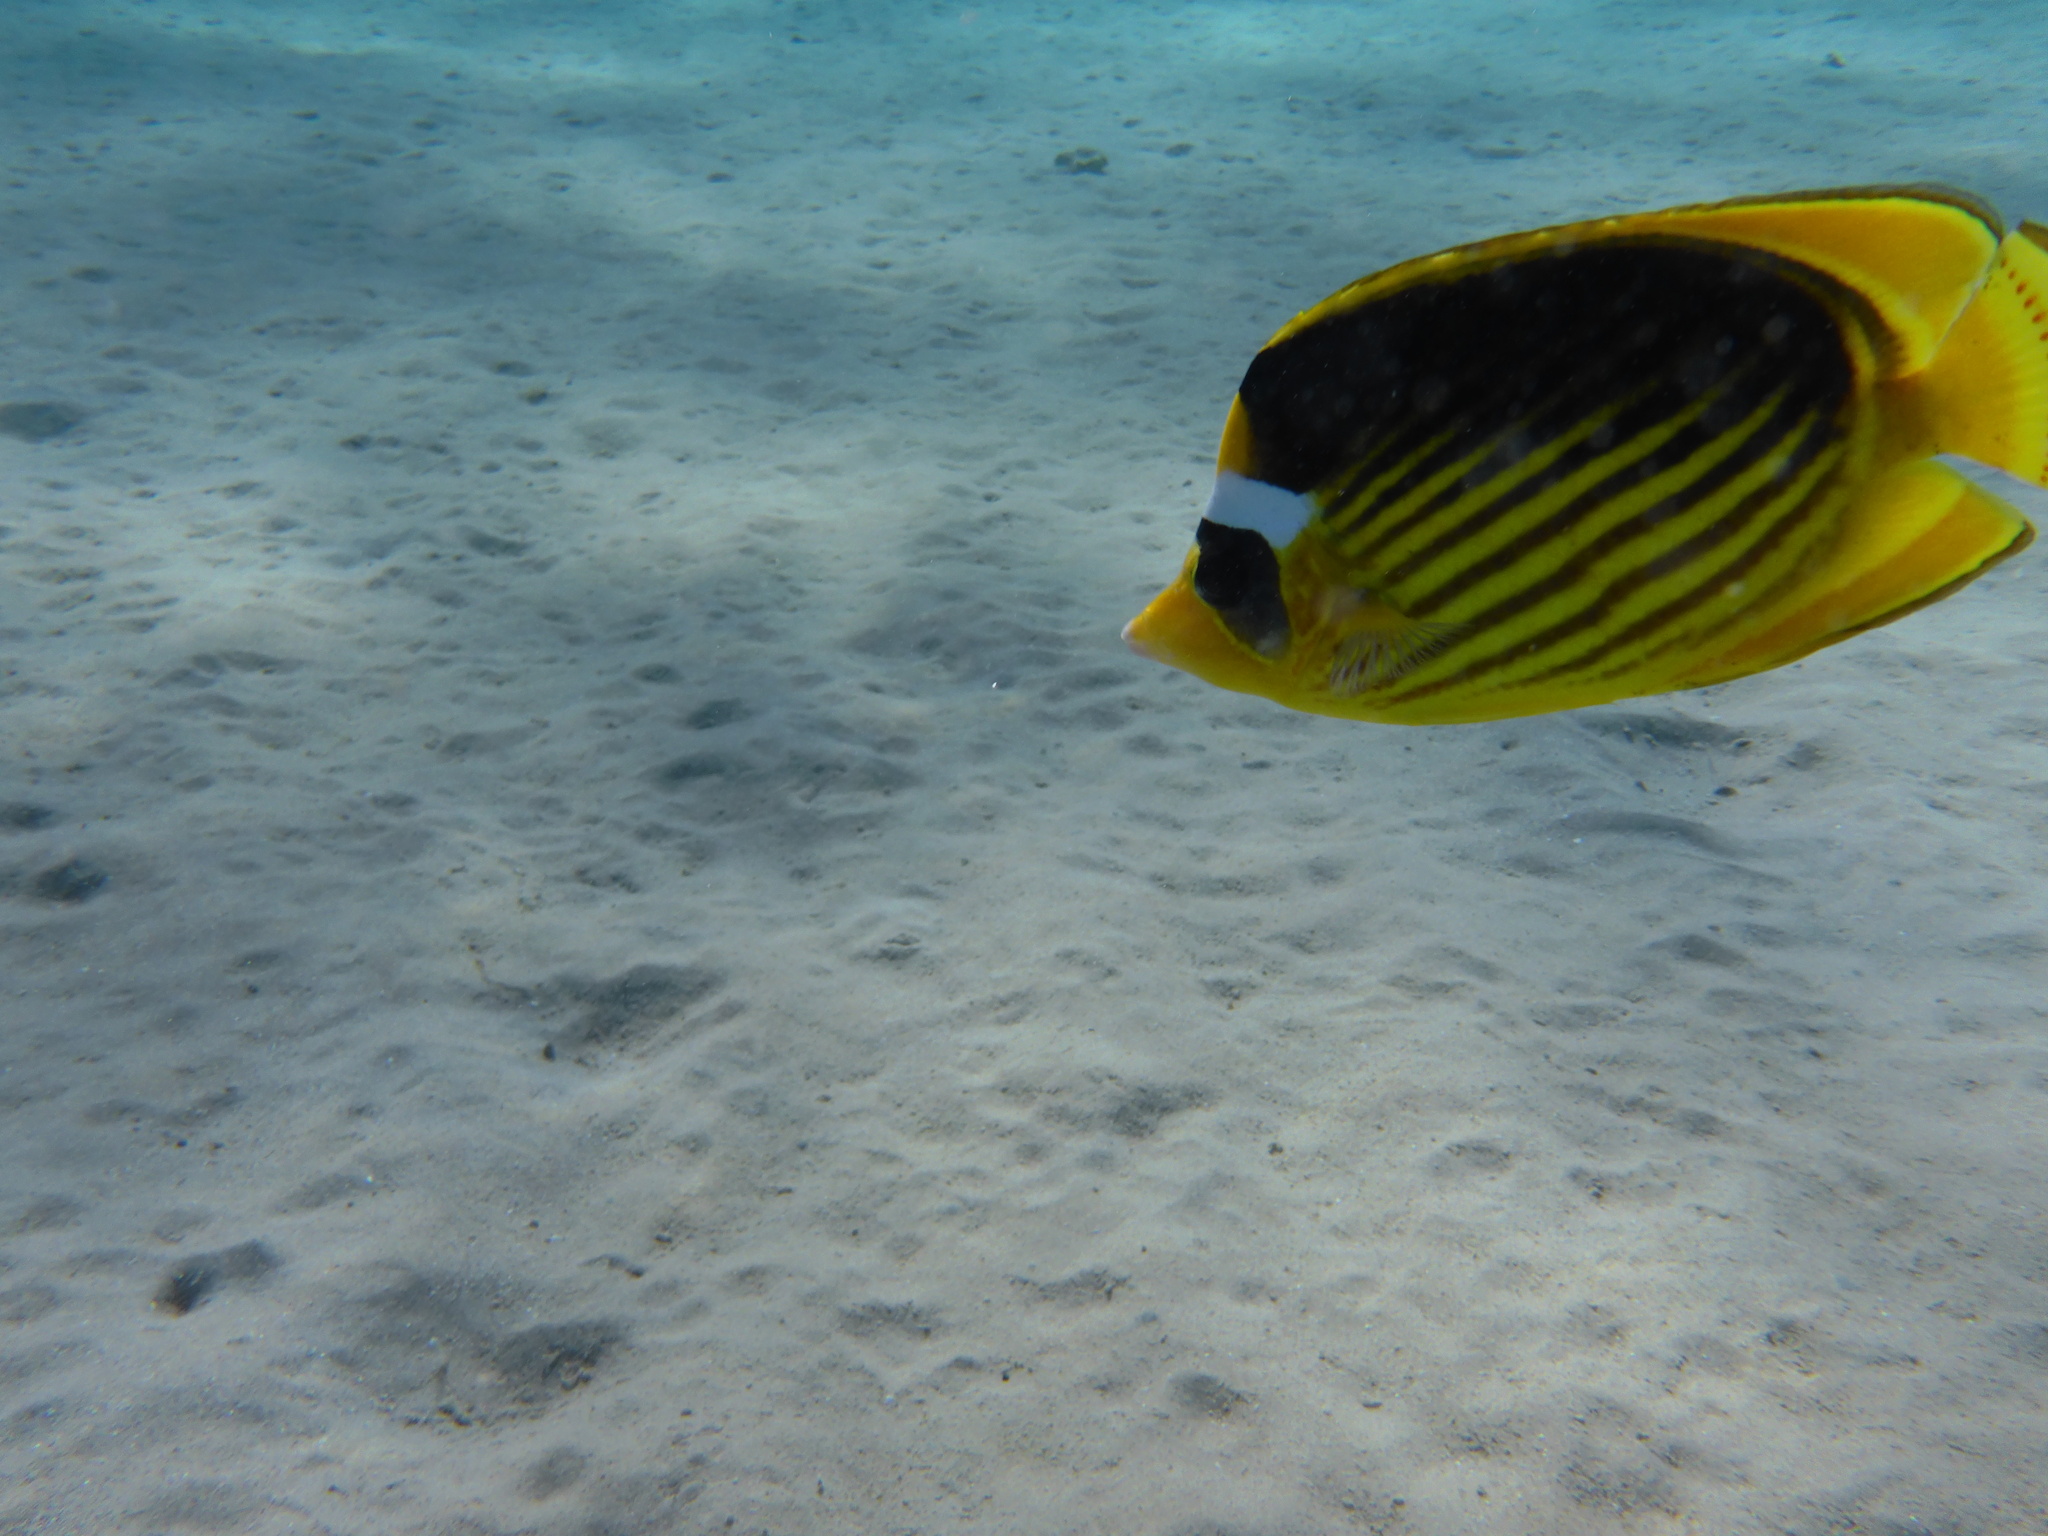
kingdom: Animalia
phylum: Chordata
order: Perciformes
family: Chaetodontidae
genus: Chaetodon
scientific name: Chaetodon fasciatus
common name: Diagonal butterflyfish
